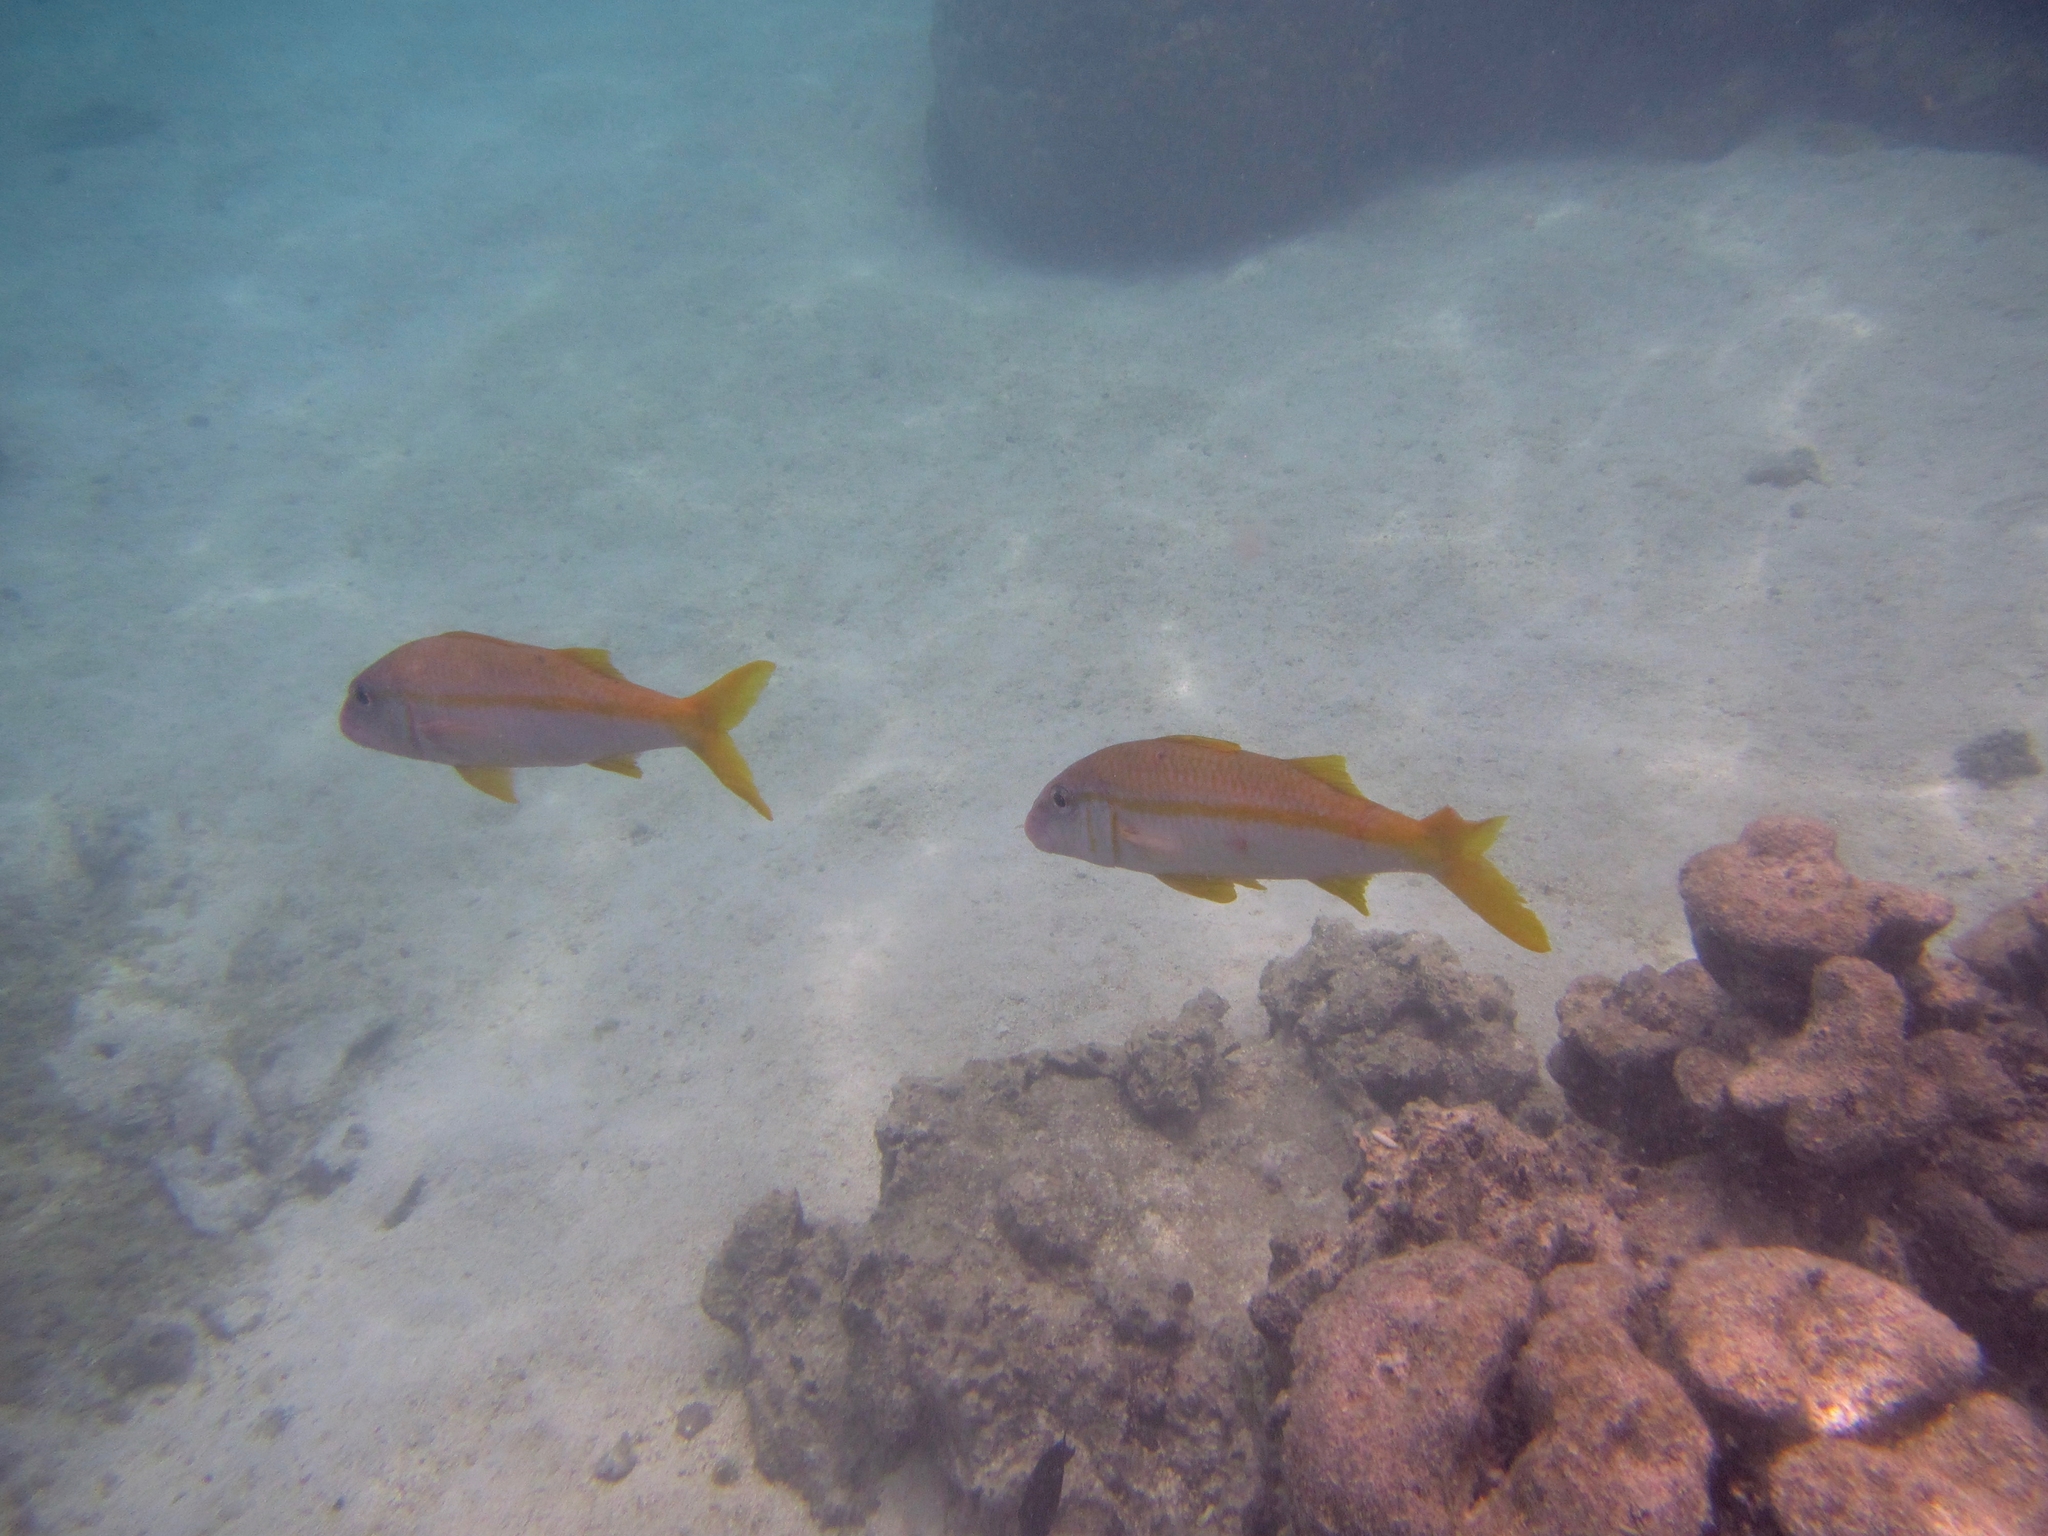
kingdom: Animalia
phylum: Chordata
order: Perciformes
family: Mullidae
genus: Mulloidichthys
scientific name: Mulloidichthys vanicolensis
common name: Yellowfin goatfish
